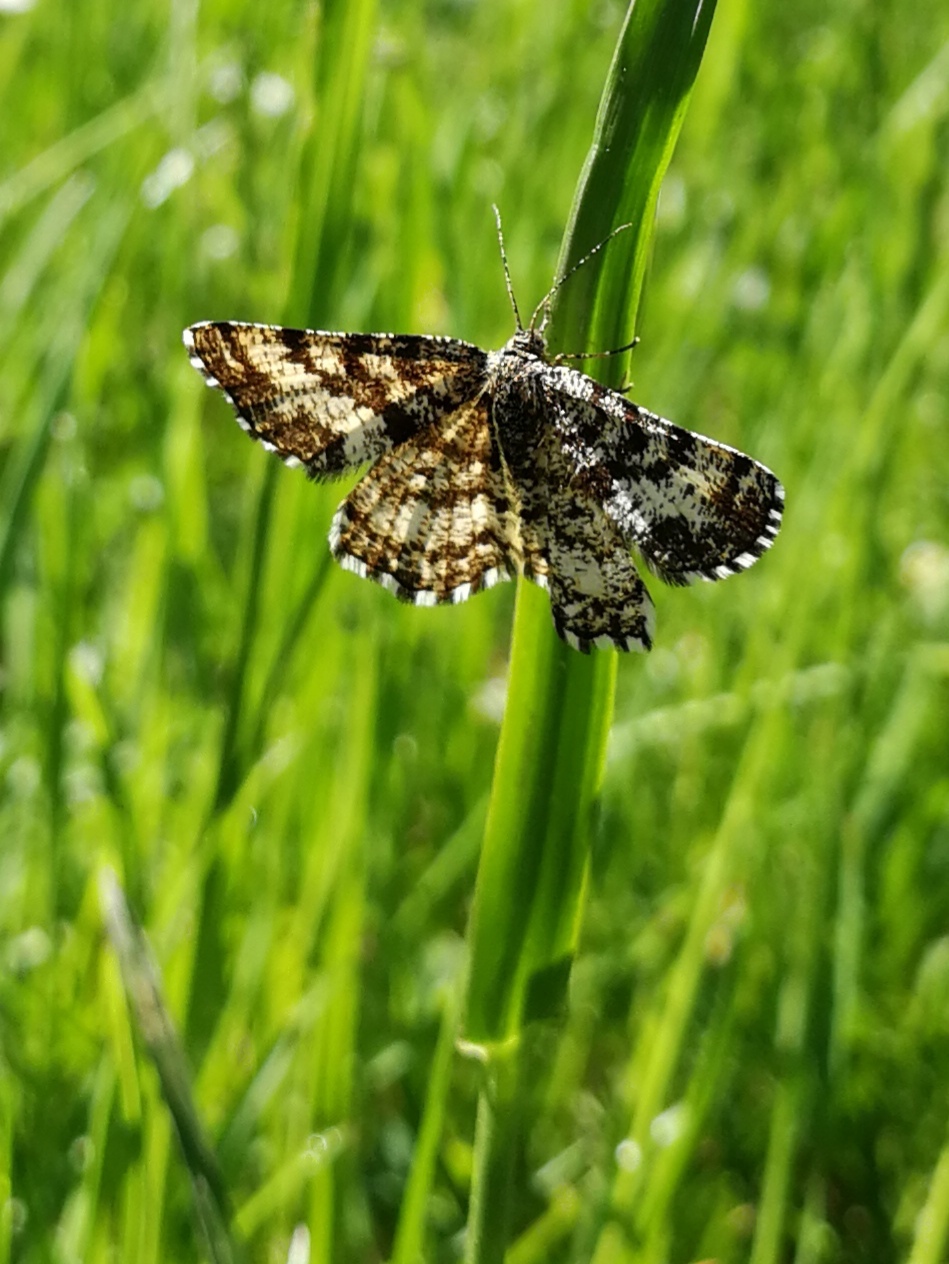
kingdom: Animalia
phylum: Arthropoda
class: Insecta
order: Lepidoptera
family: Geometridae
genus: Ematurga
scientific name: Ematurga atomaria
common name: Common heath
